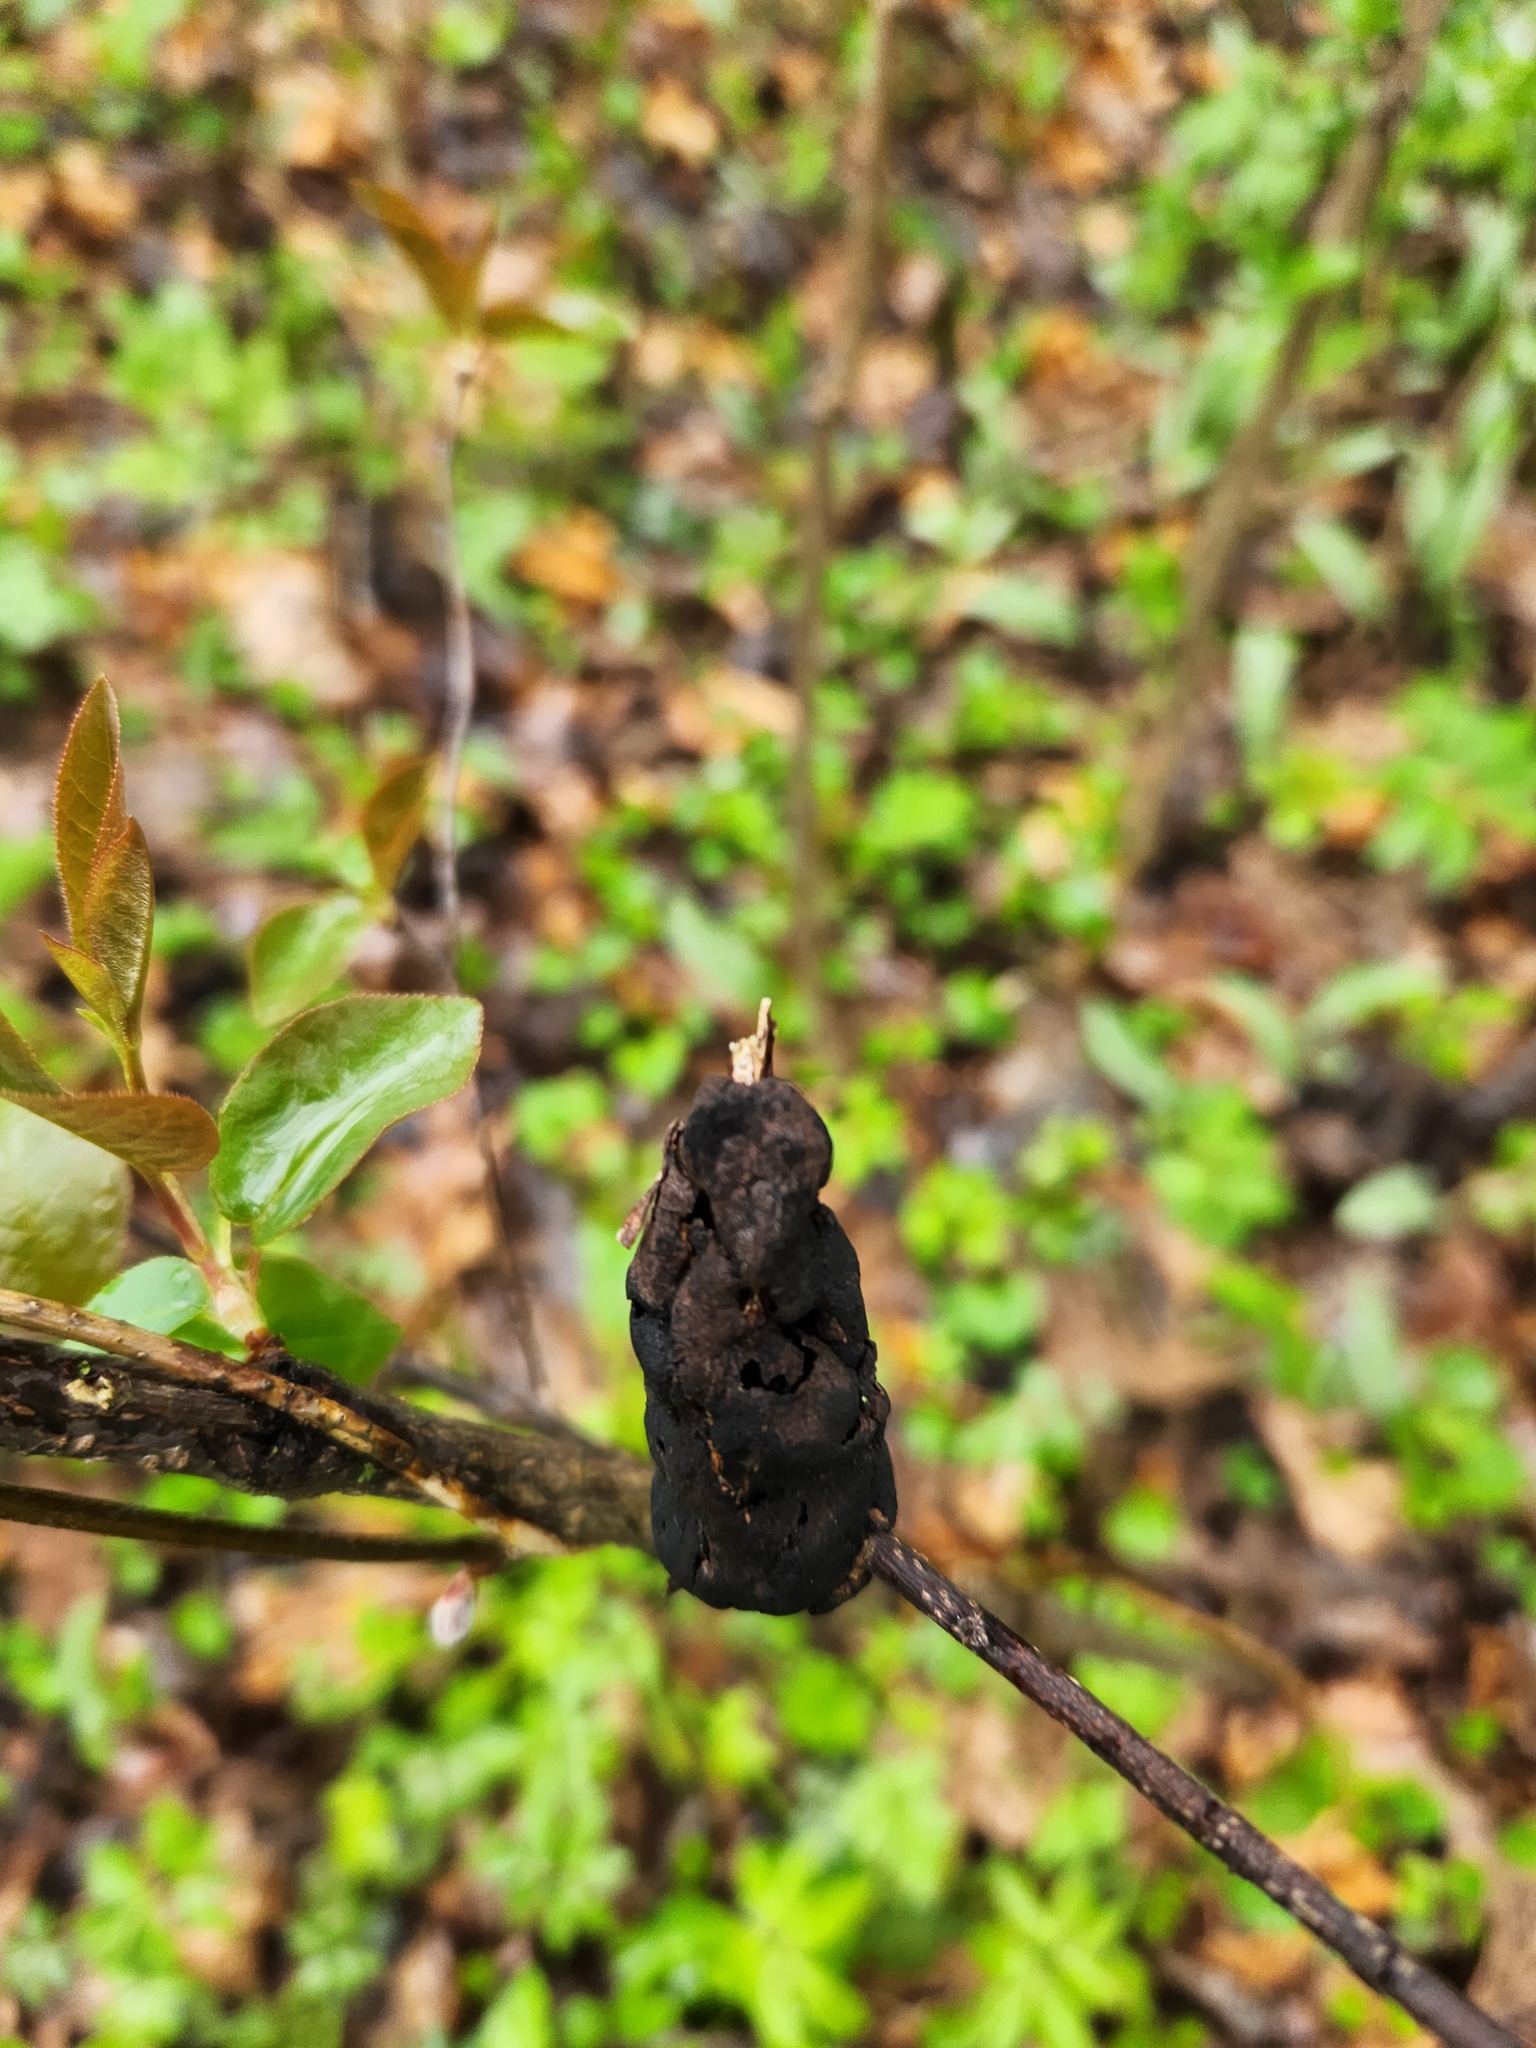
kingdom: Fungi
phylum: Ascomycota
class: Dothideomycetes
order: Venturiales
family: Venturiaceae
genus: Apiosporina
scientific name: Apiosporina morbosa
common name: Black knot
